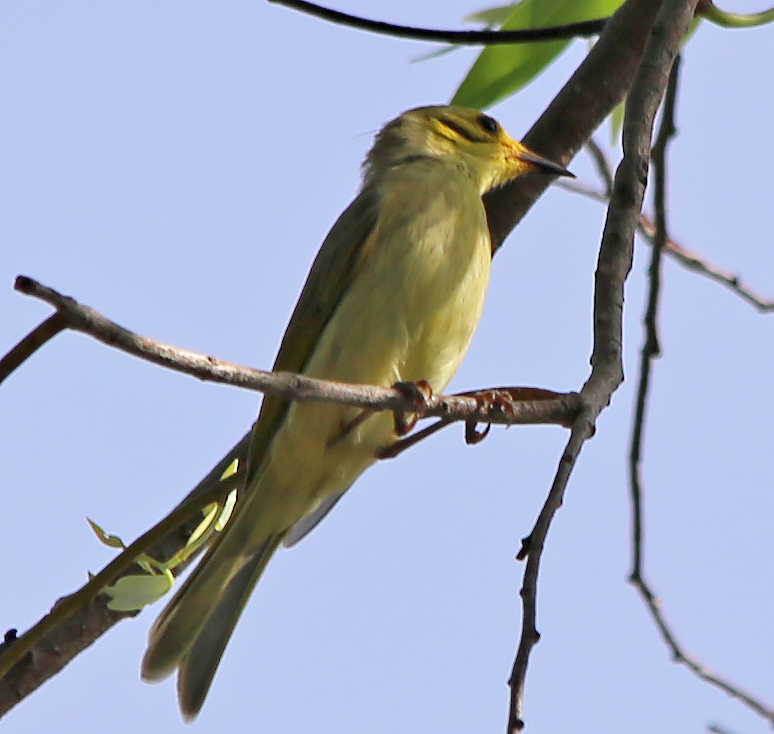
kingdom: Animalia
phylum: Chordata
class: Aves
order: Passeriformes
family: Meliphagidae
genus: Ptilotula
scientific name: Ptilotula flavescens
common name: Yellow-tinted honeyeater
